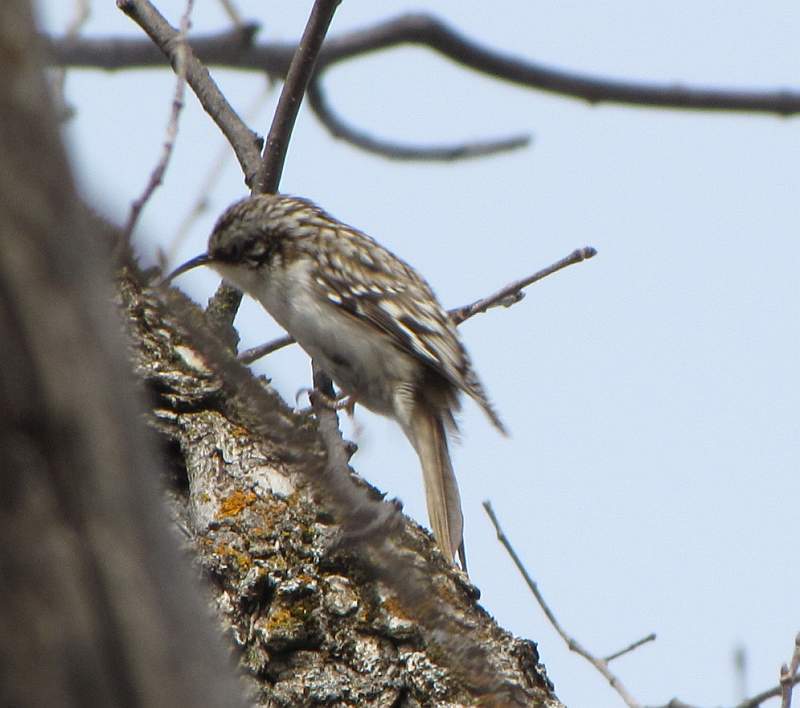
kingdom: Animalia
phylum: Chordata
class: Aves
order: Passeriformes
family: Certhiidae
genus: Certhia
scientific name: Certhia americana
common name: Brown creeper
